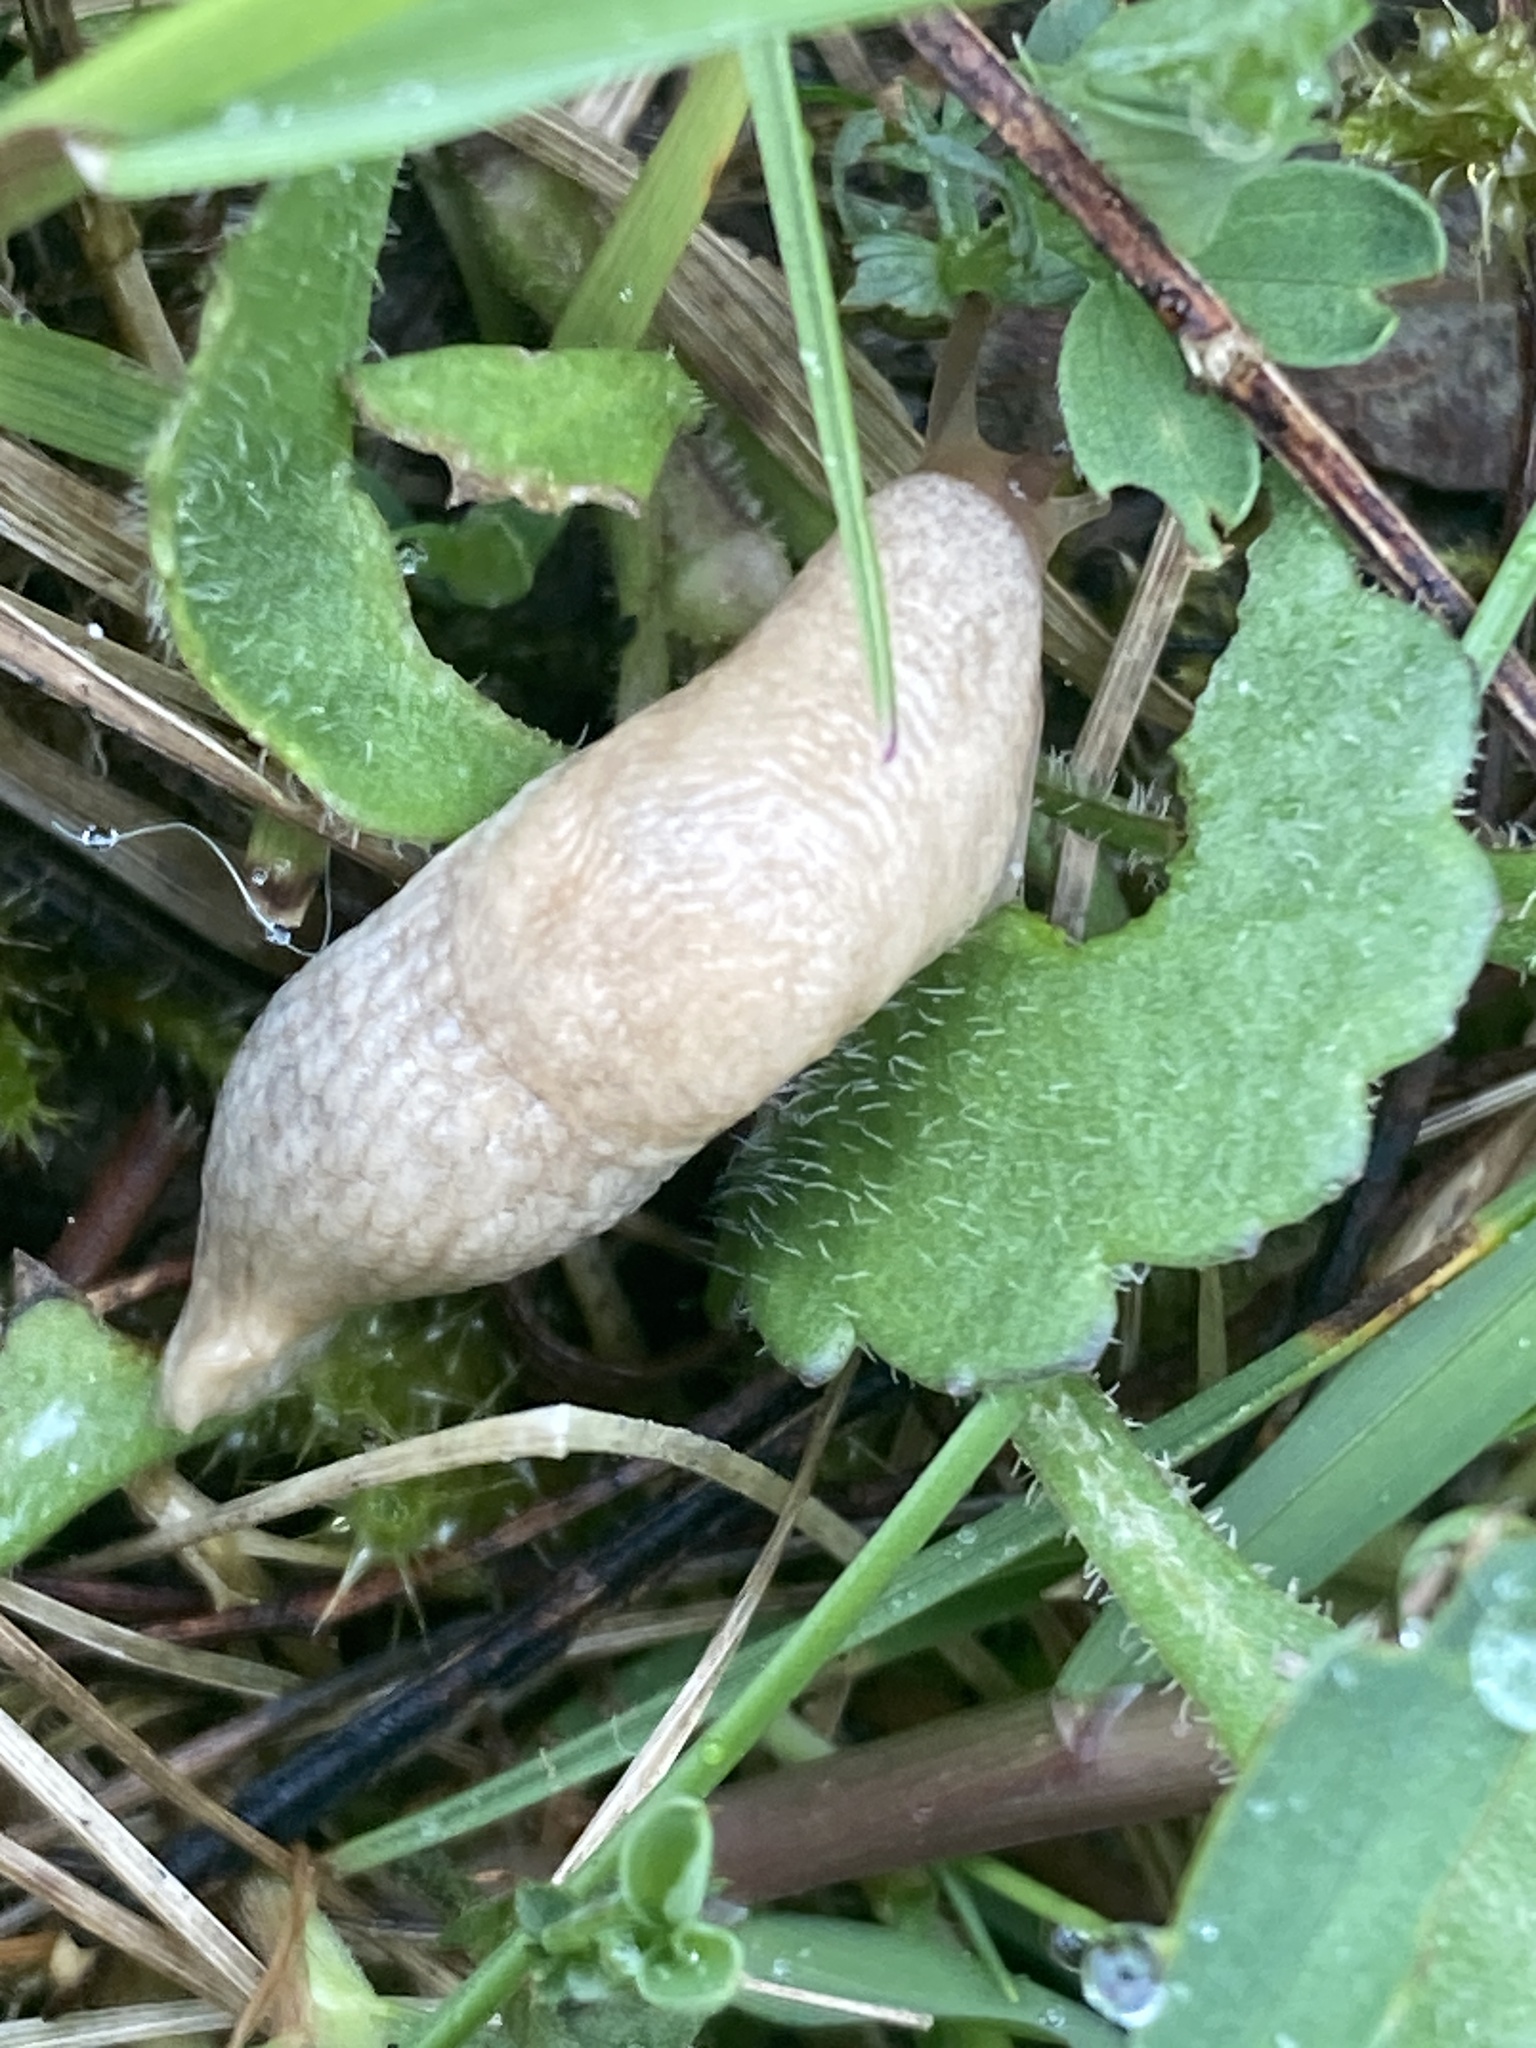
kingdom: Animalia
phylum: Mollusca
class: Gastropoda
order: Stylommatophora
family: Agriolimacidae
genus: Deroceras
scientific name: Deroceras reticulatum
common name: Gray field slug
